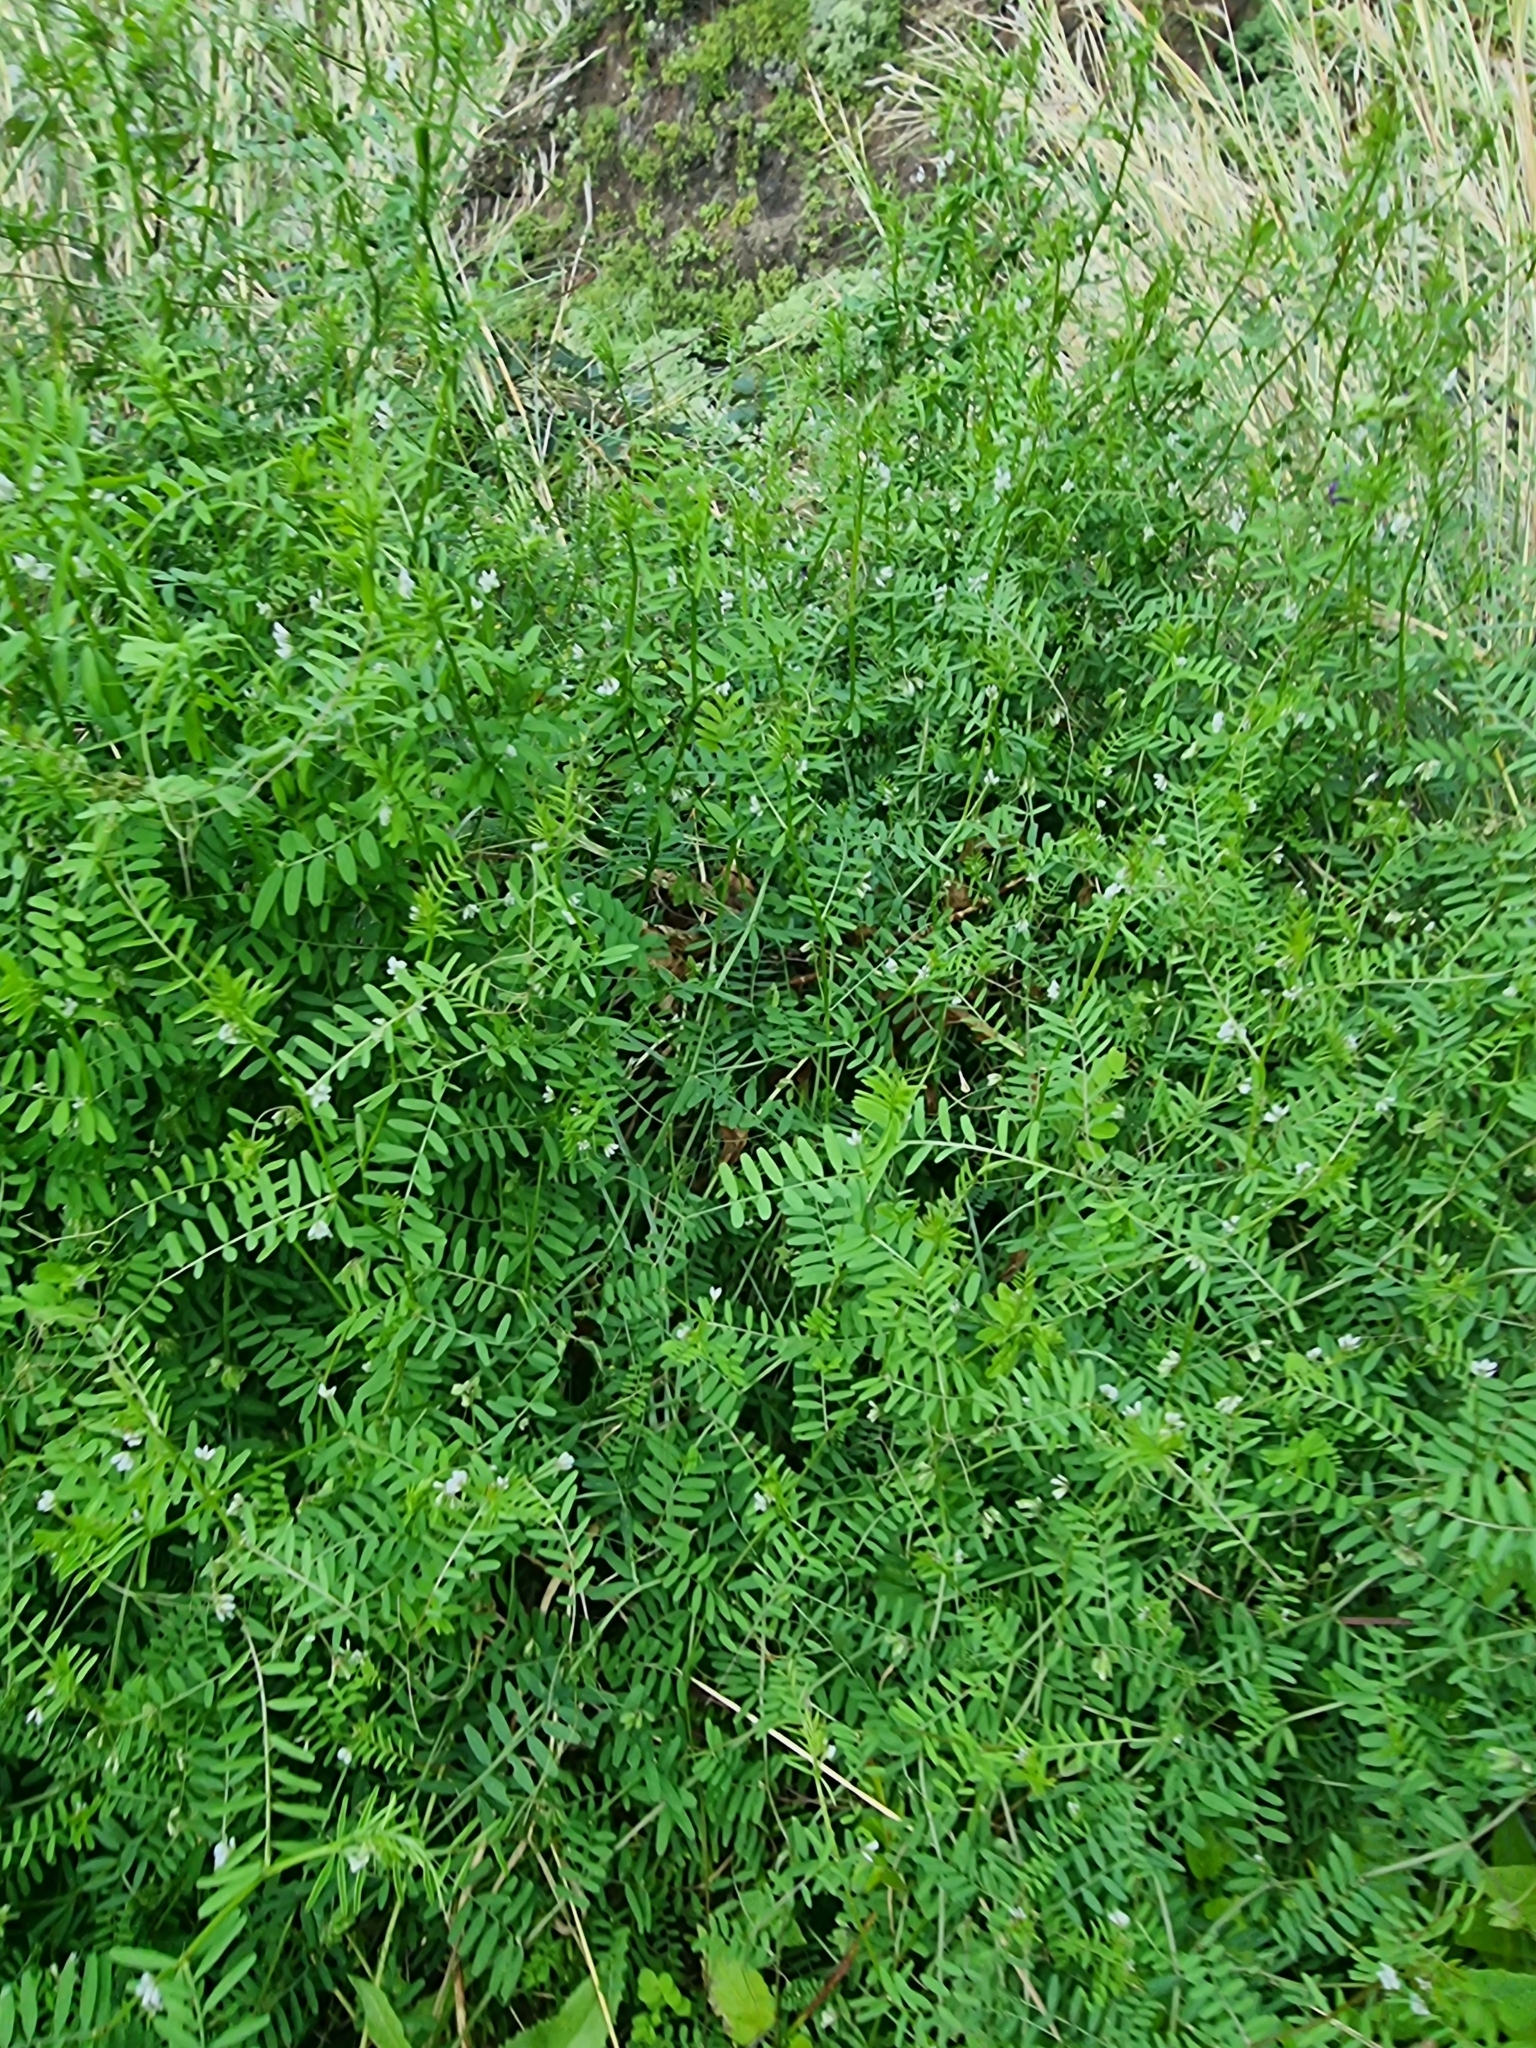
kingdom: Plantae
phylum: Tracheophyta
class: Magnoliopsida
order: Fabales
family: Fabaceae
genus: Vicia
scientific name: Vicia hirsuta
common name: Tiny vetch
